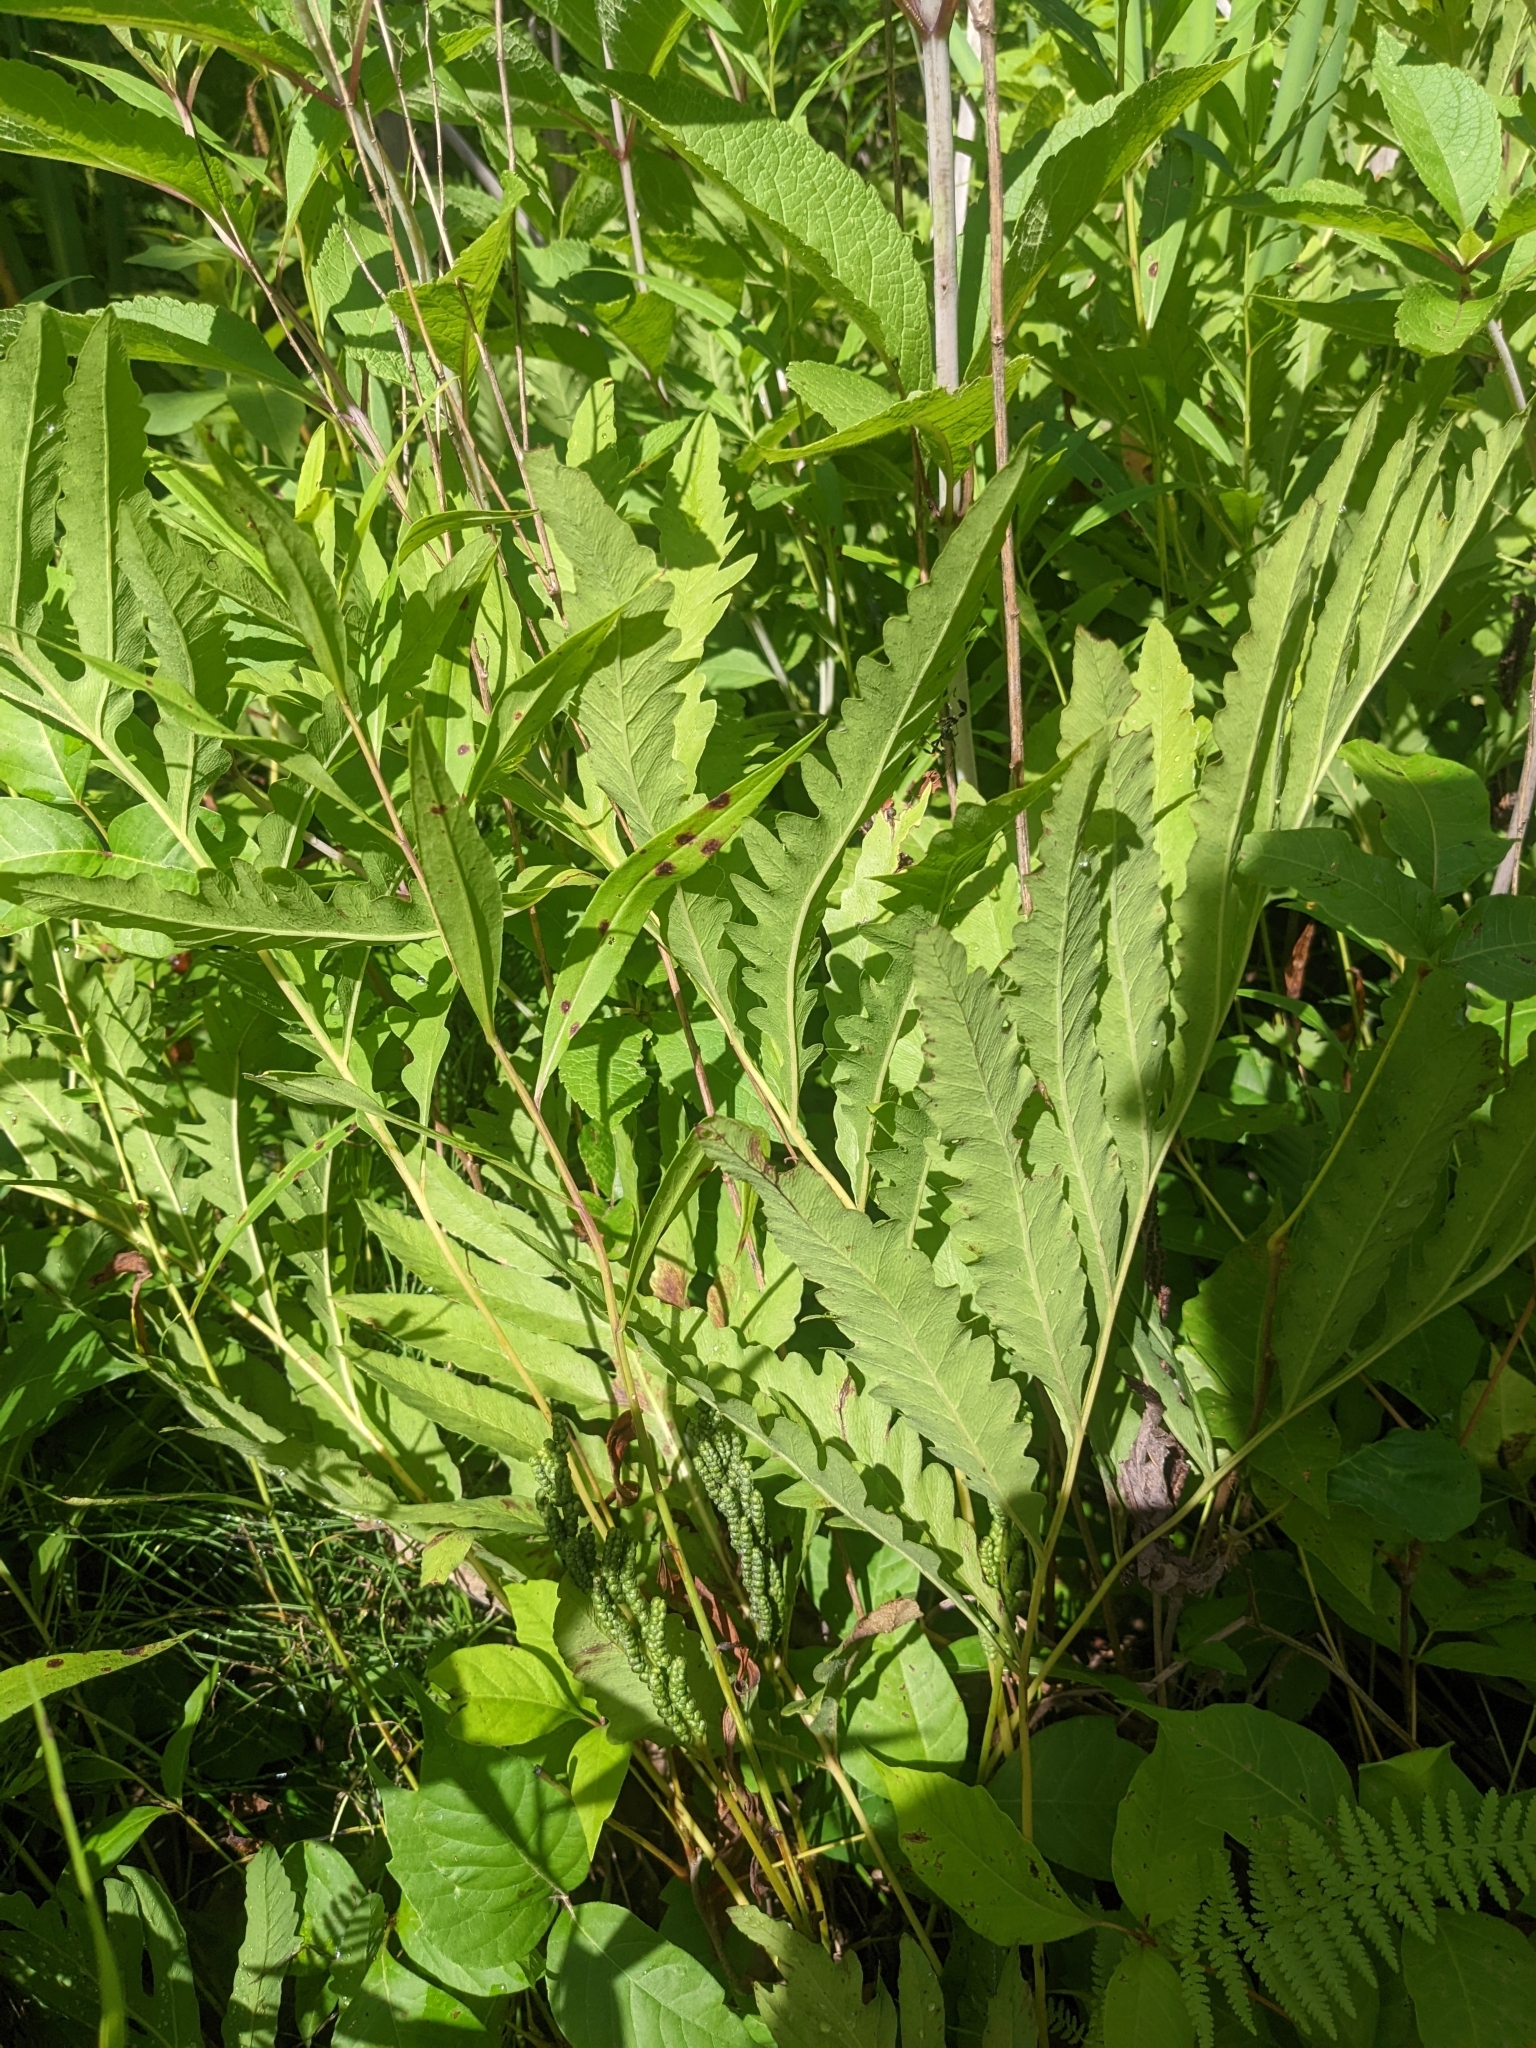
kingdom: Plantae
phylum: Tracheophyta
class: Polypodiopsida
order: Polypodiales
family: Onocleaceae
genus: Onoclea
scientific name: Onoclea sensibilis
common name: Sensitive fern
